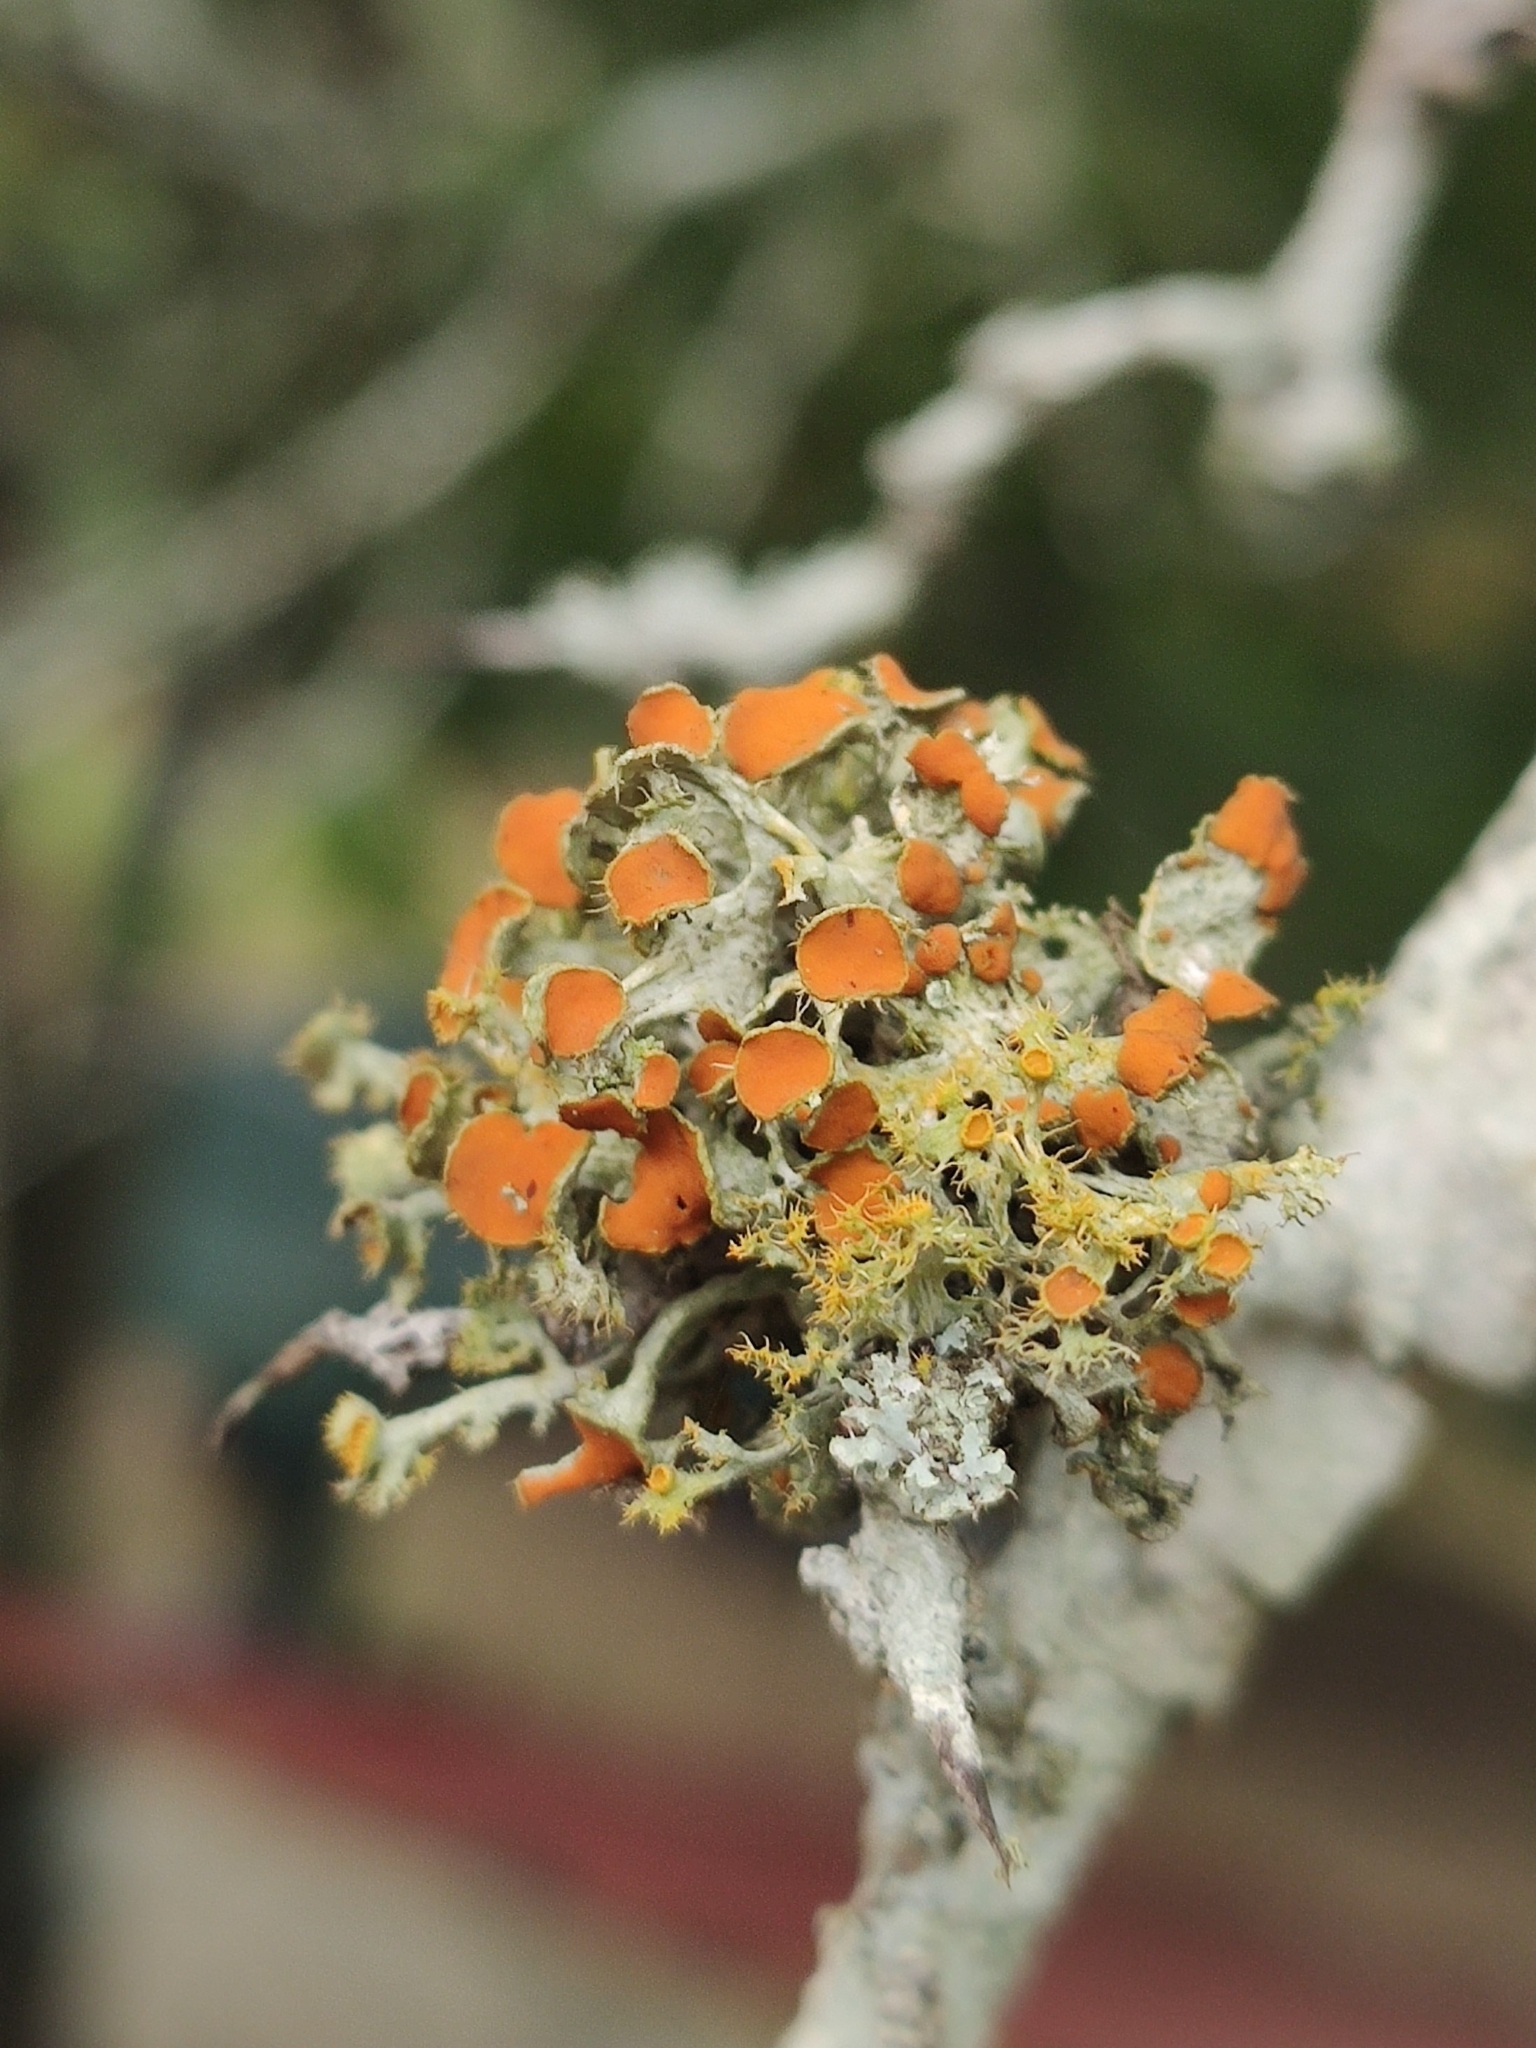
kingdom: Fungi
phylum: Ascomycota
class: Lecanoromycetes
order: Teloschistales
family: Teloschistaceae
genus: Niorma
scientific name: Niorma chrysophthalma
